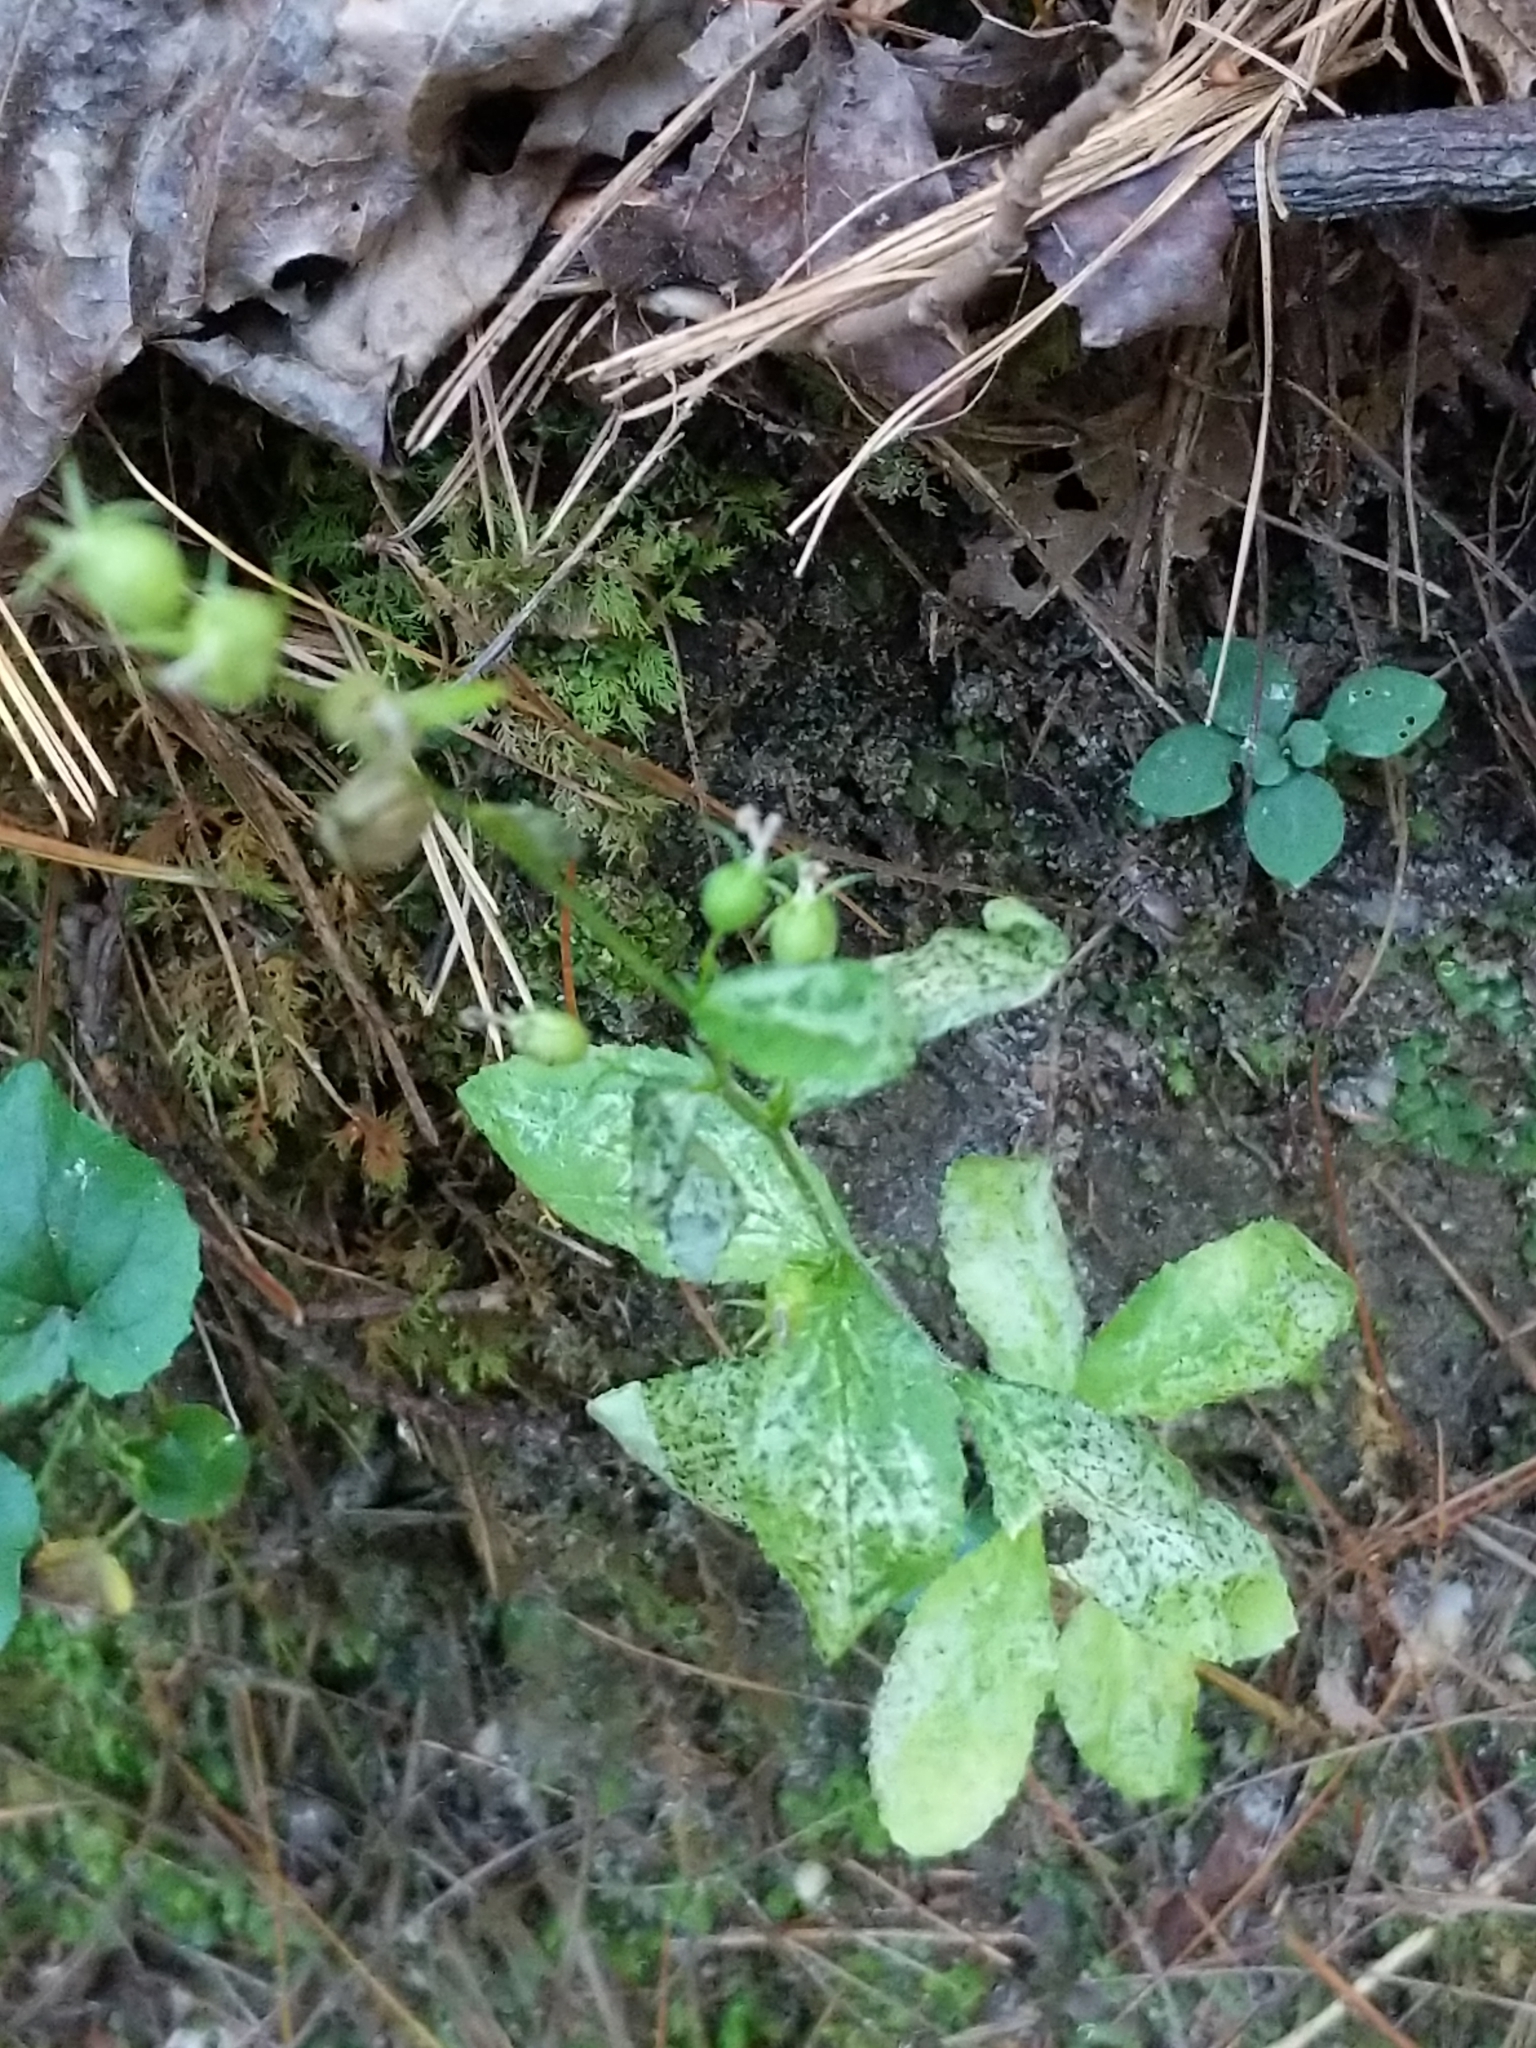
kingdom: Plantae
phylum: Tracheophyta
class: Magnoliopsida
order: Asterales
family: Campanulaceae
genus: Lobelia
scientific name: Lobelia inflata
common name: Indian tobacco
